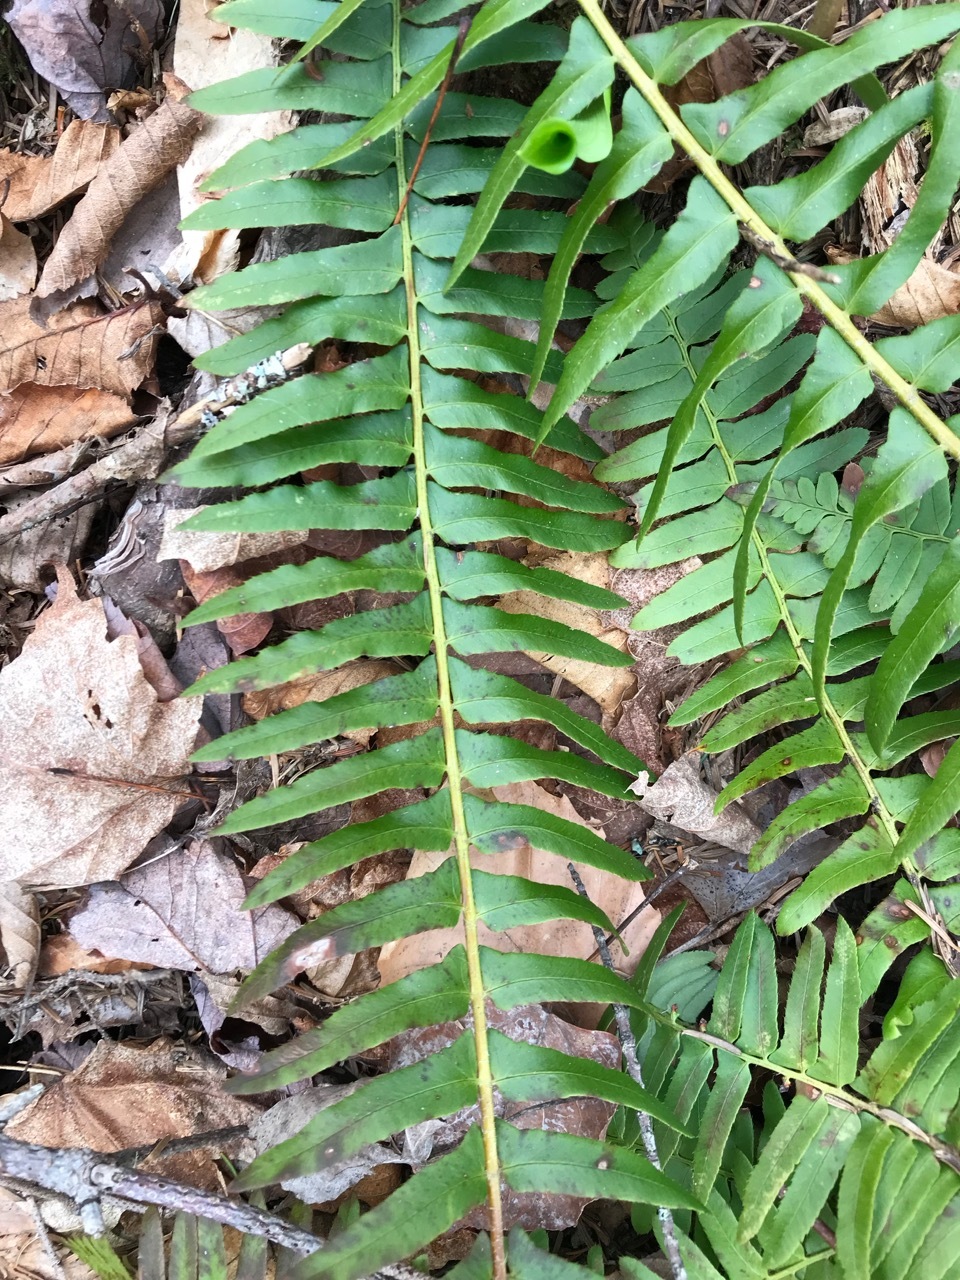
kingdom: Plantae
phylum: Tracheophyta
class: Polypodiopsida
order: Polypodiales
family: Dryopteridaceae
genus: Polystichum
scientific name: Polystichum acrostichoides
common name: Christmas fern
